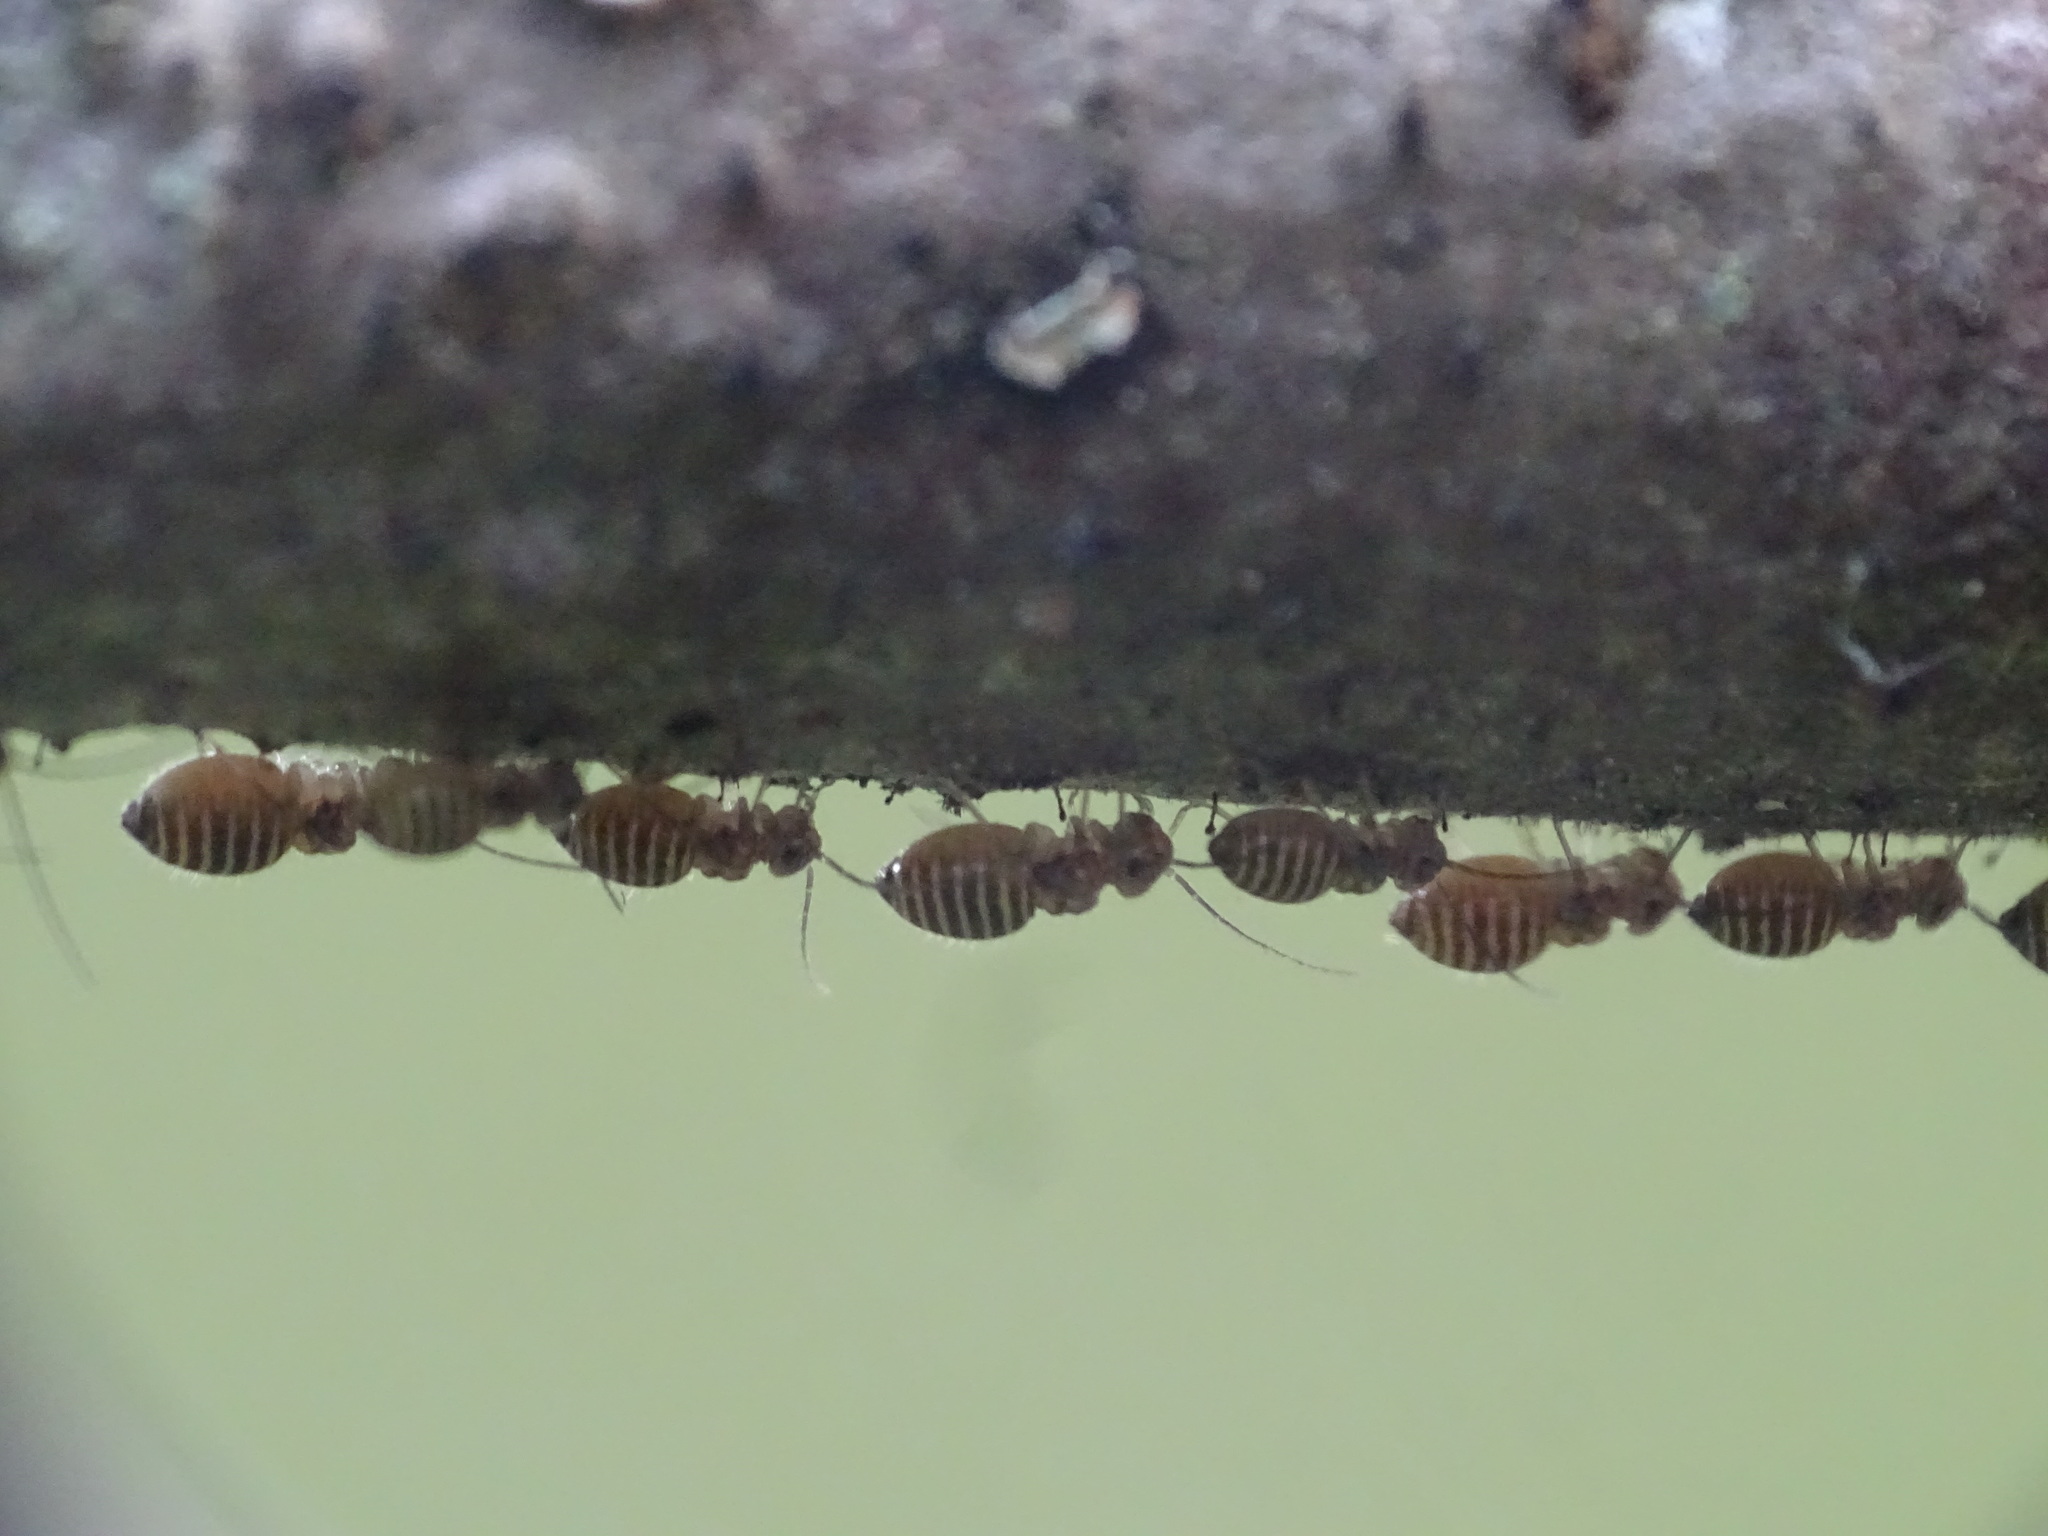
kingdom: Animalia
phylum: Arthropoda
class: Insecta
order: Psocodea
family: Psocidae
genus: Cerastipsocus
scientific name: Cerastipsocus venosus
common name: Tree cattle
